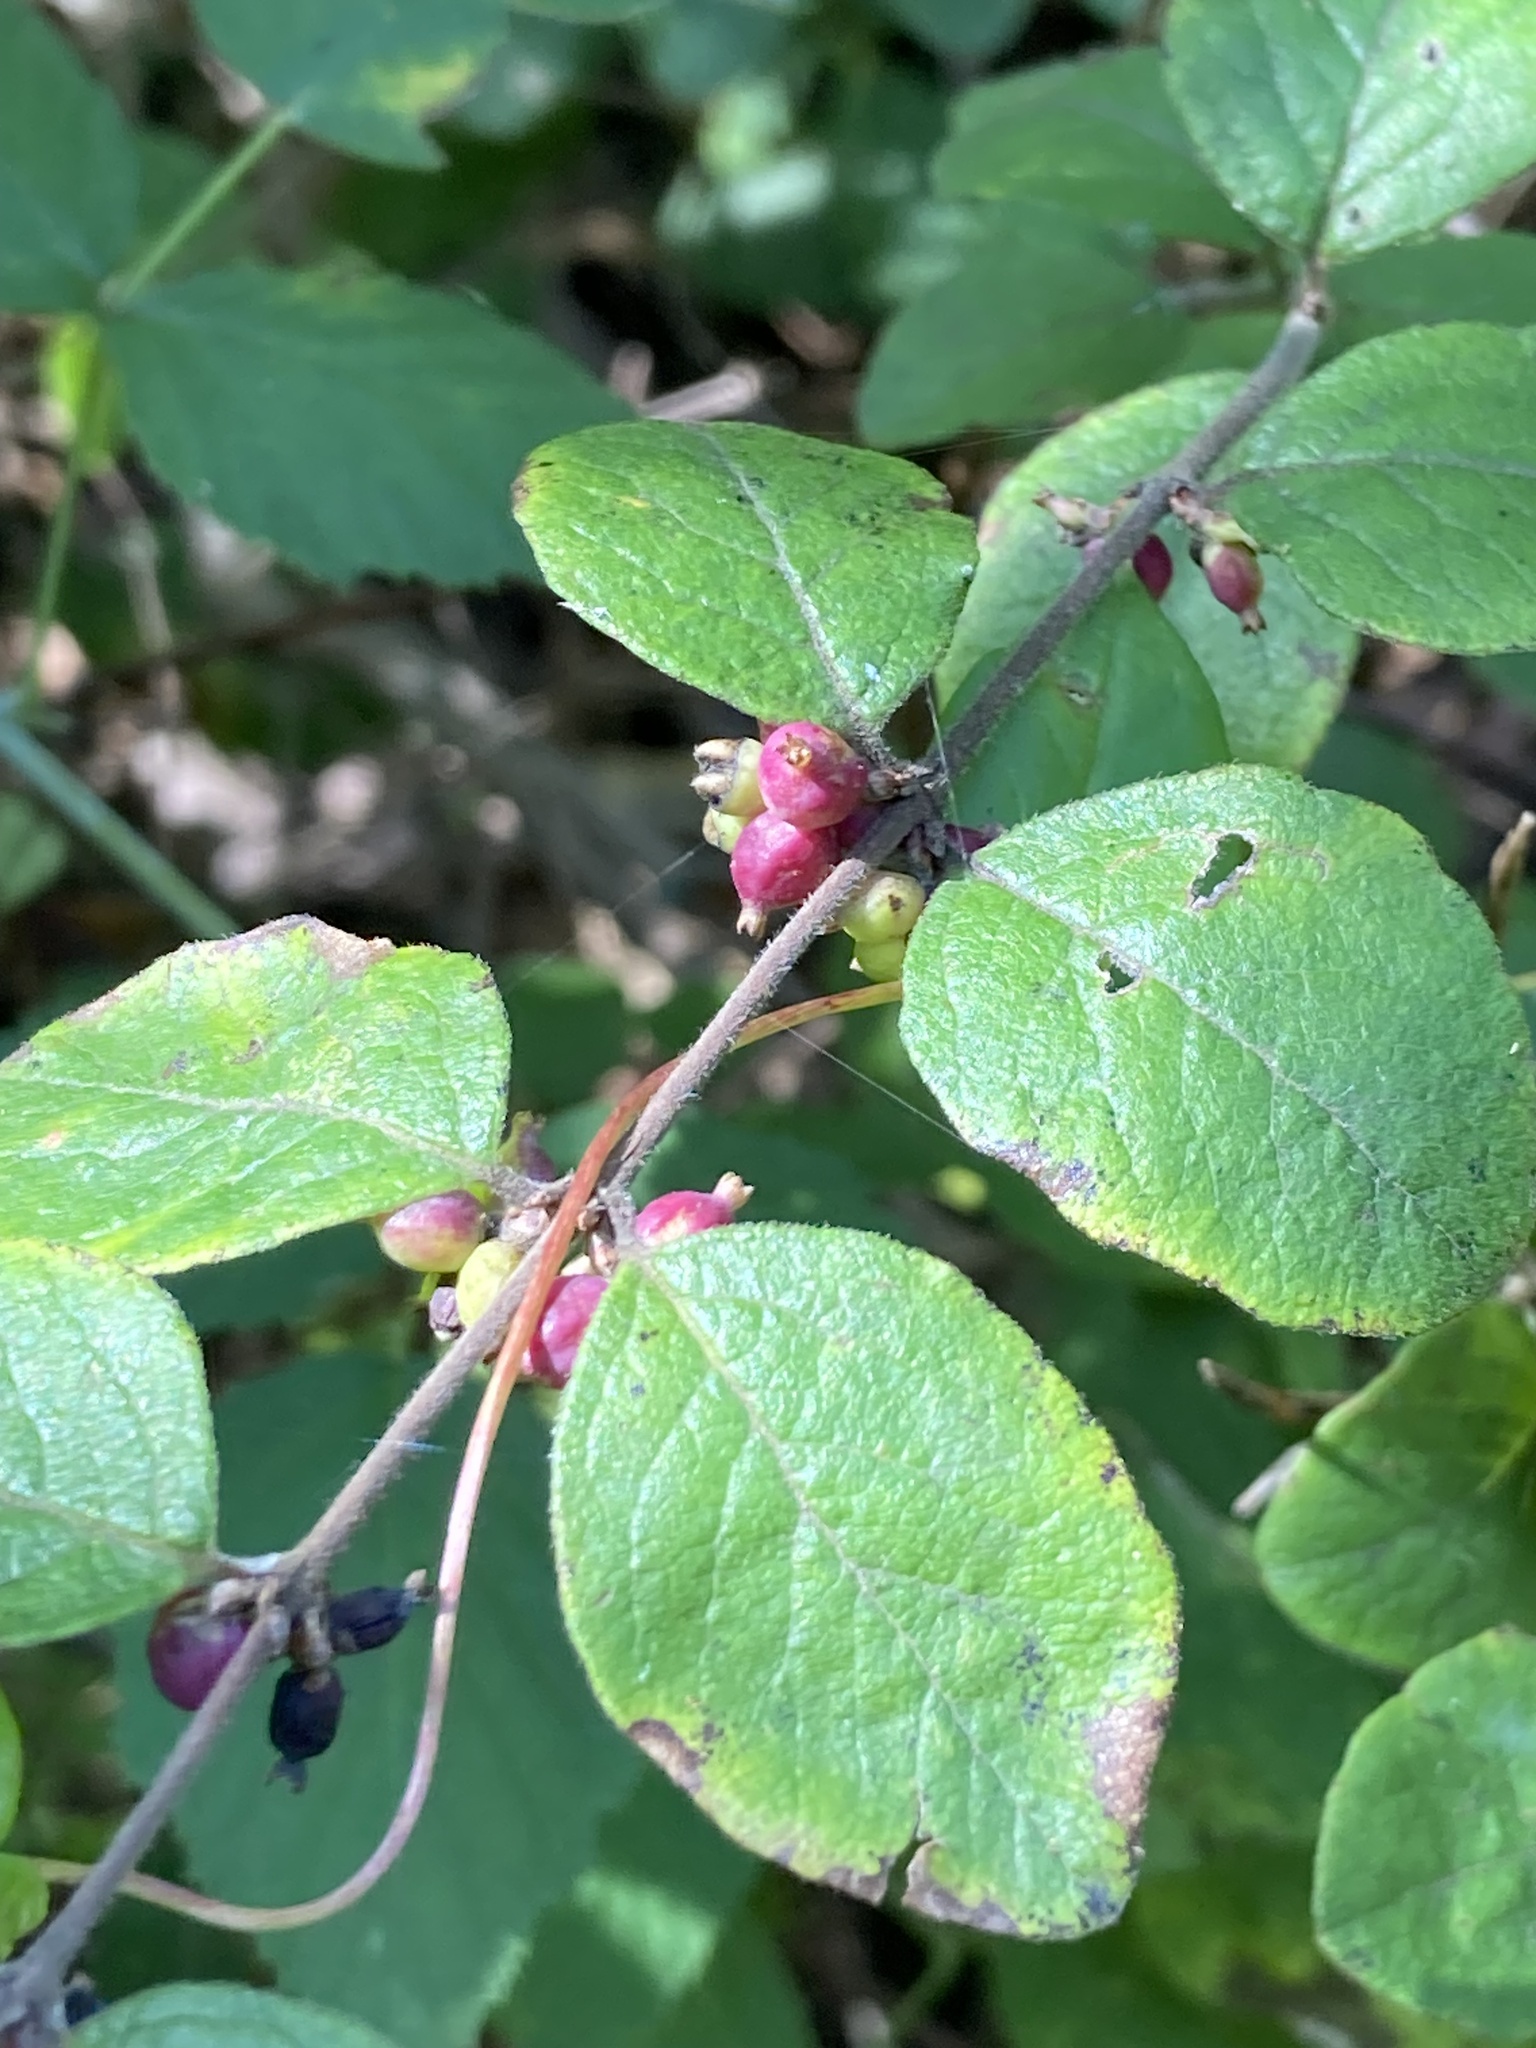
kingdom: Plantae
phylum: Tracheophyta
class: Magnoliopsida
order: Dipsacales
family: Caprifoliaceae
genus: Symphoricarpos
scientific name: Symphoricarpos orbiculatus
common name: Coralberry
